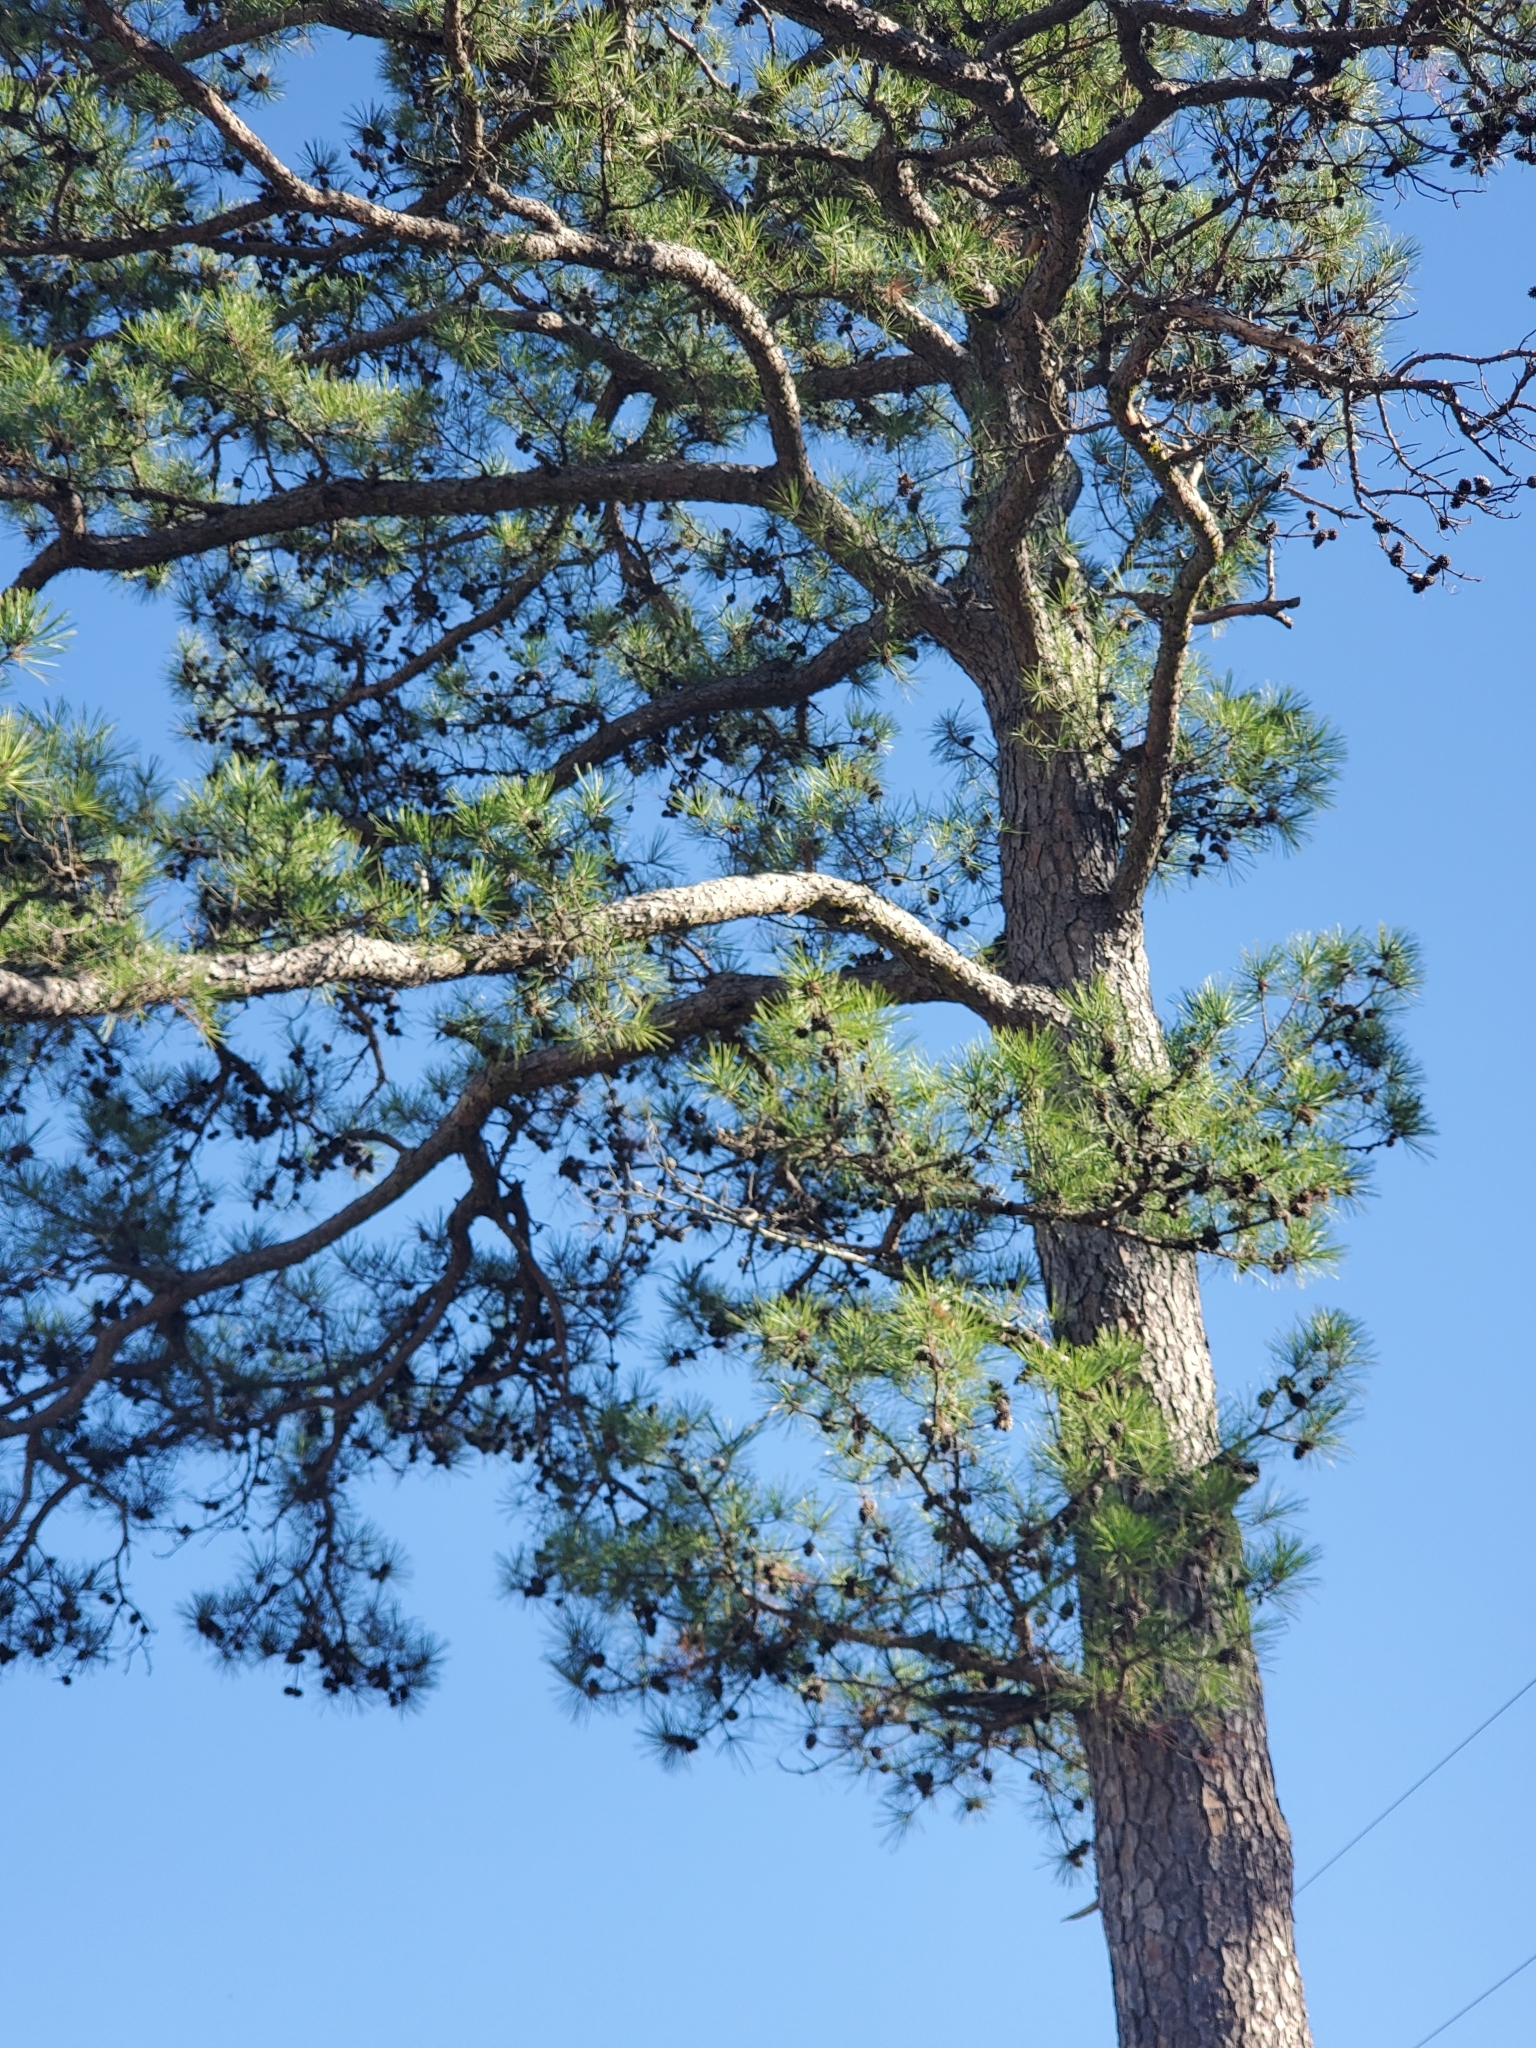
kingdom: Plantae
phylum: Tracheophyta
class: Pinopsida
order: Pinales
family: Pinaceae
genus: Pinus
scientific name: Pinus echinata
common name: Shortleaf pine
